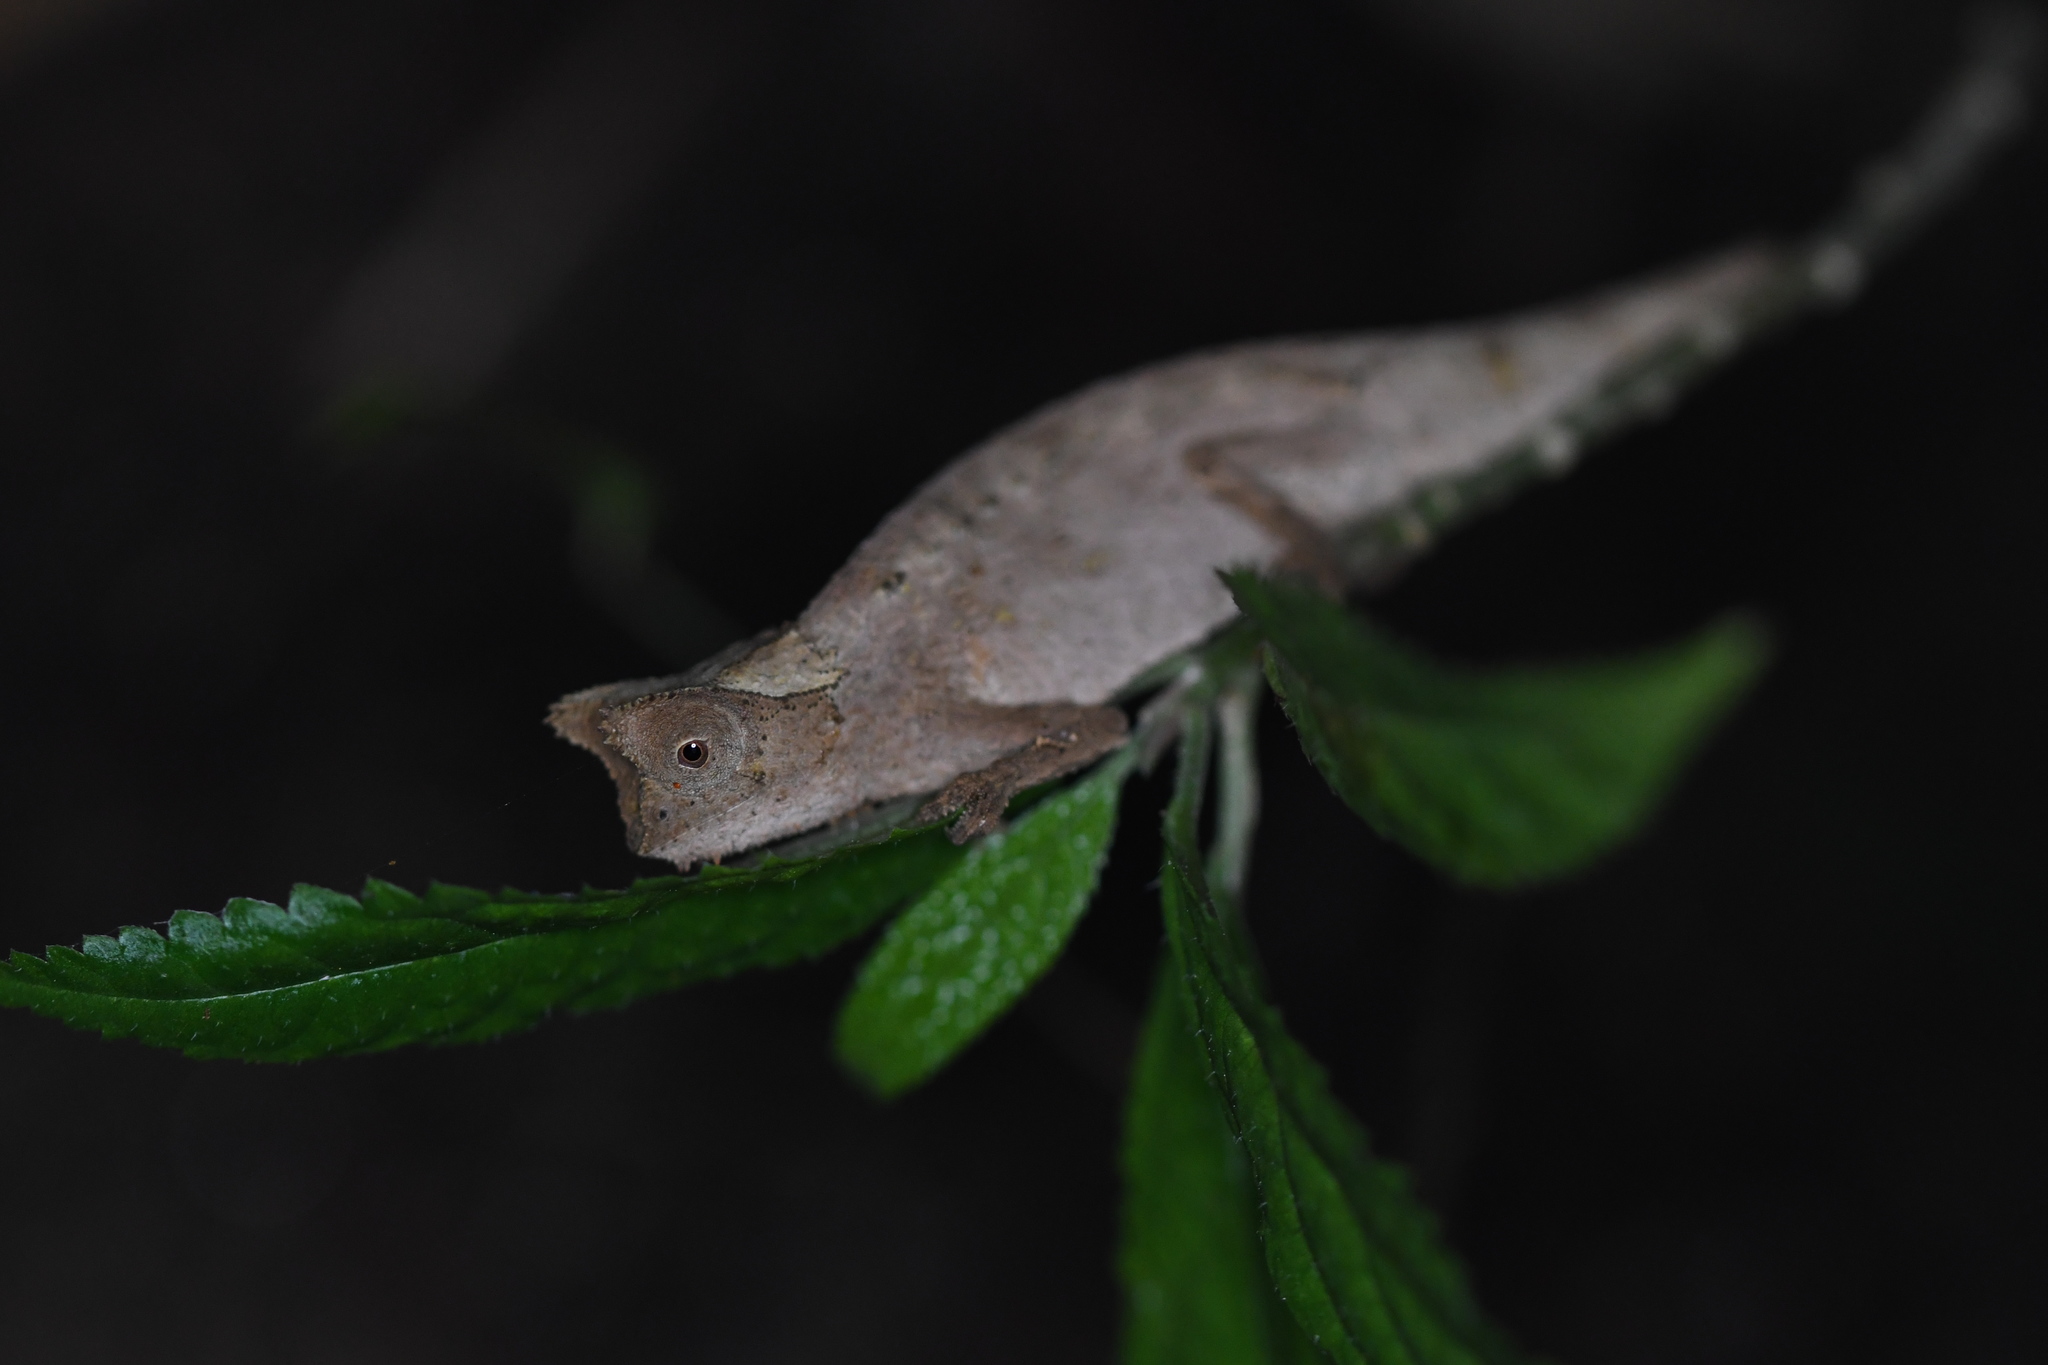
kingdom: Animalia
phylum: Chordata
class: Squamata
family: Chamaeleonidae
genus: Brookesia
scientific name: Brookesia superciliaris
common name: Brown leaf chameleon
